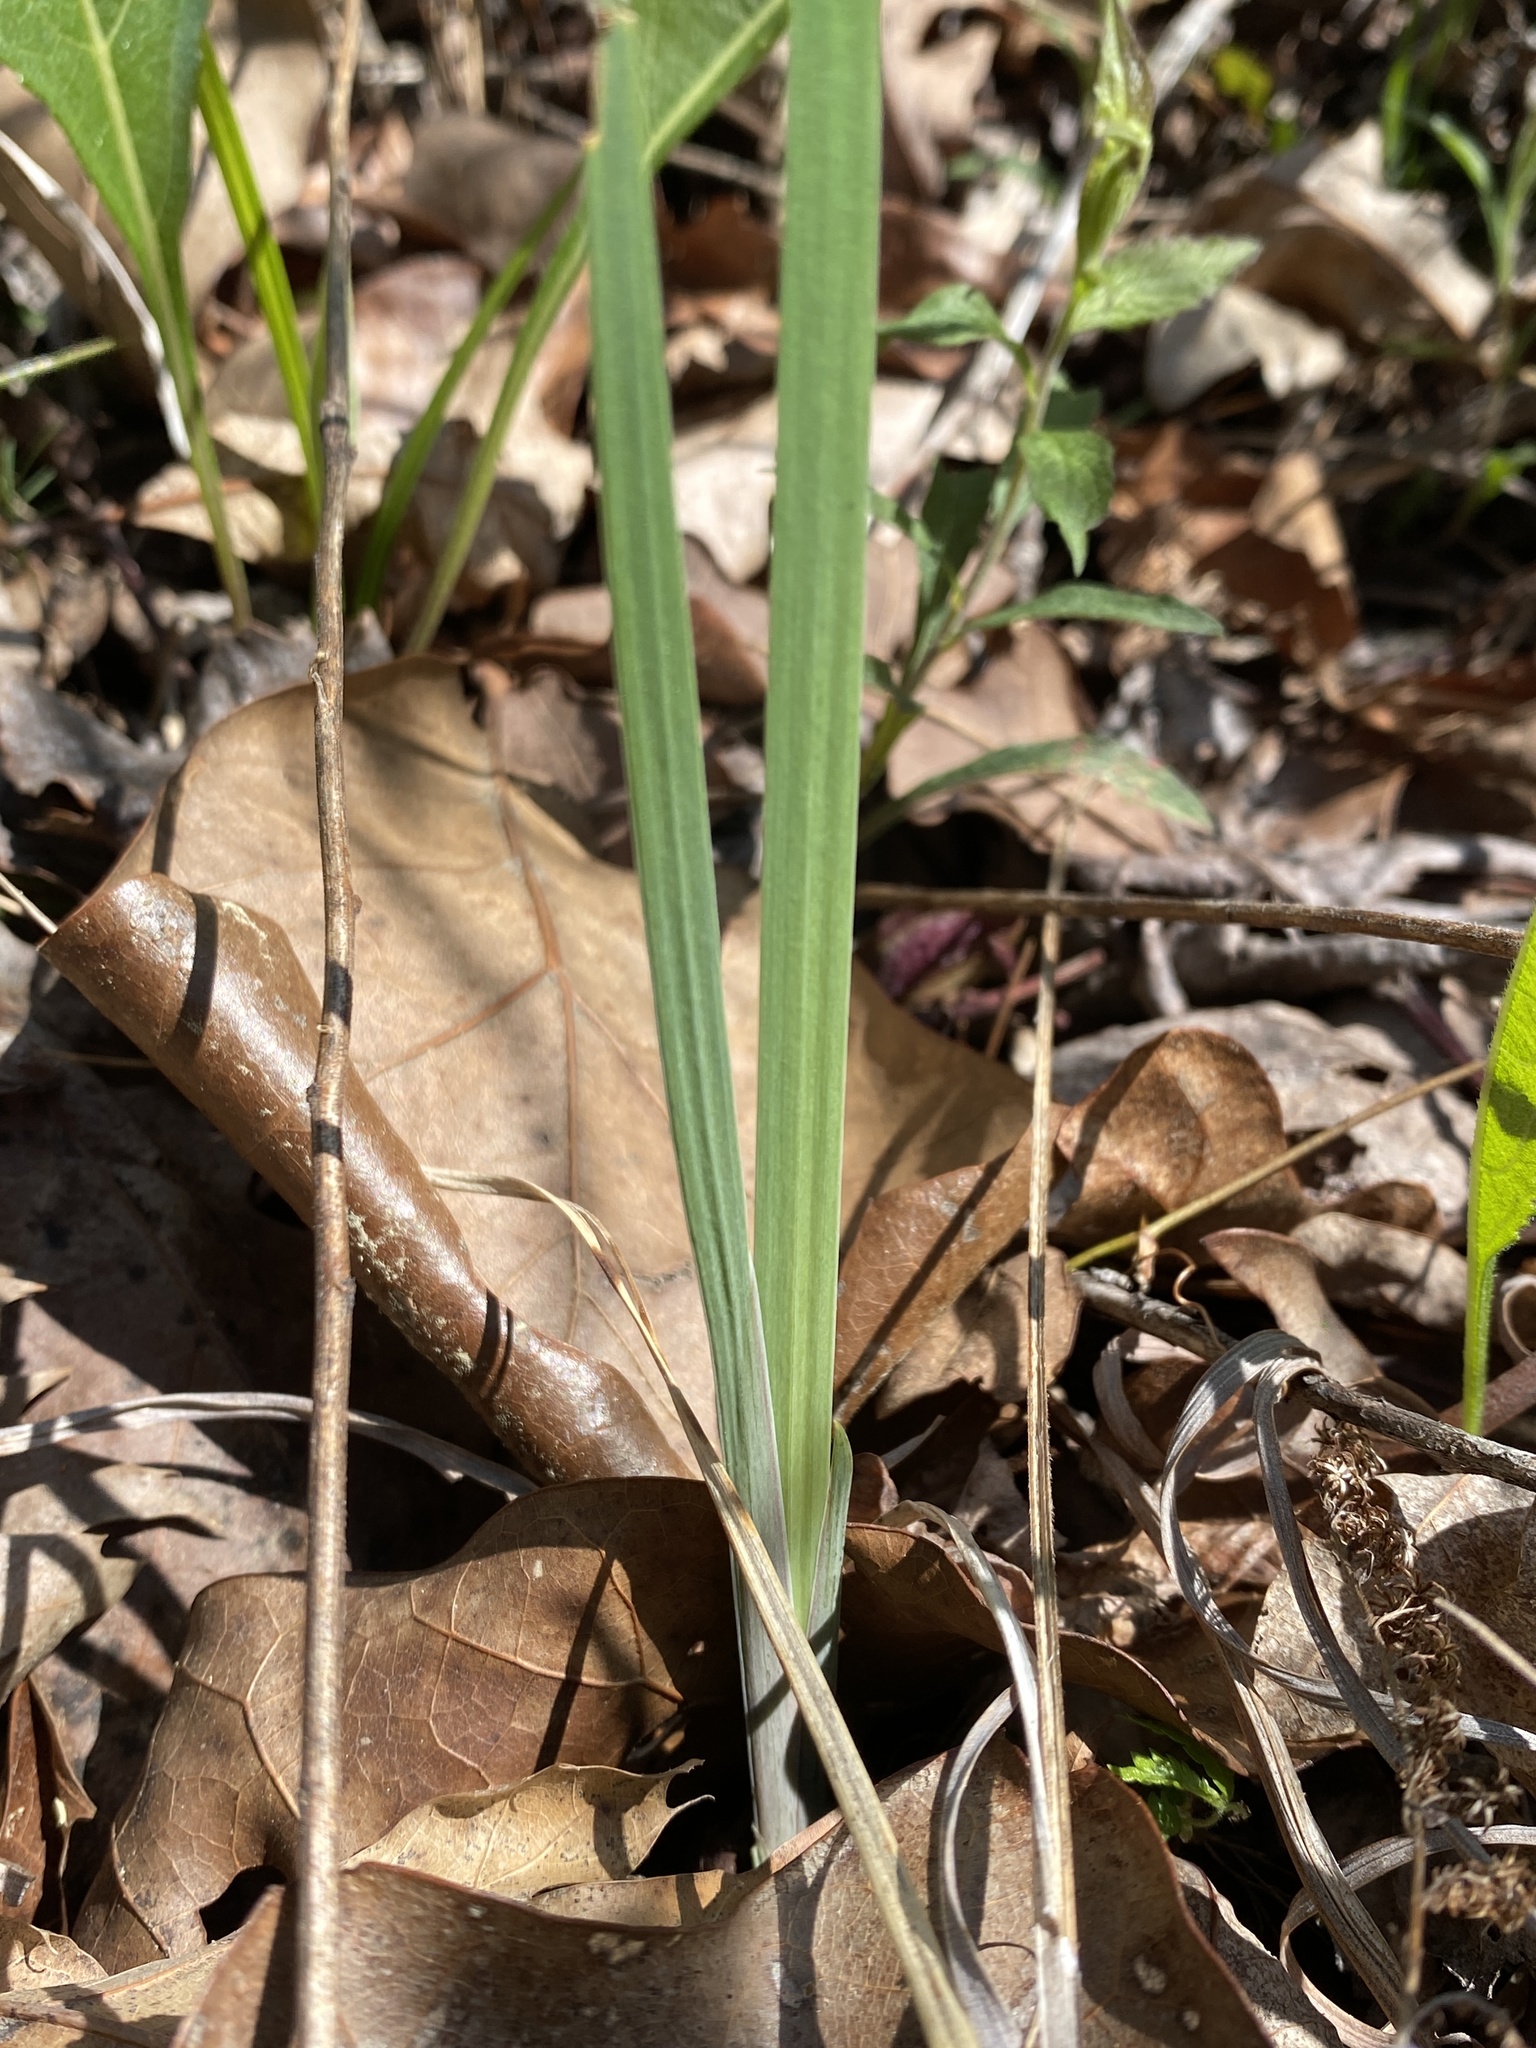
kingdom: Plantae
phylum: Tracheophyta
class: Liliopsida
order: Asparagales
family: Iridaceae
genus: Iris
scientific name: Iris verna
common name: Dwarf iris
